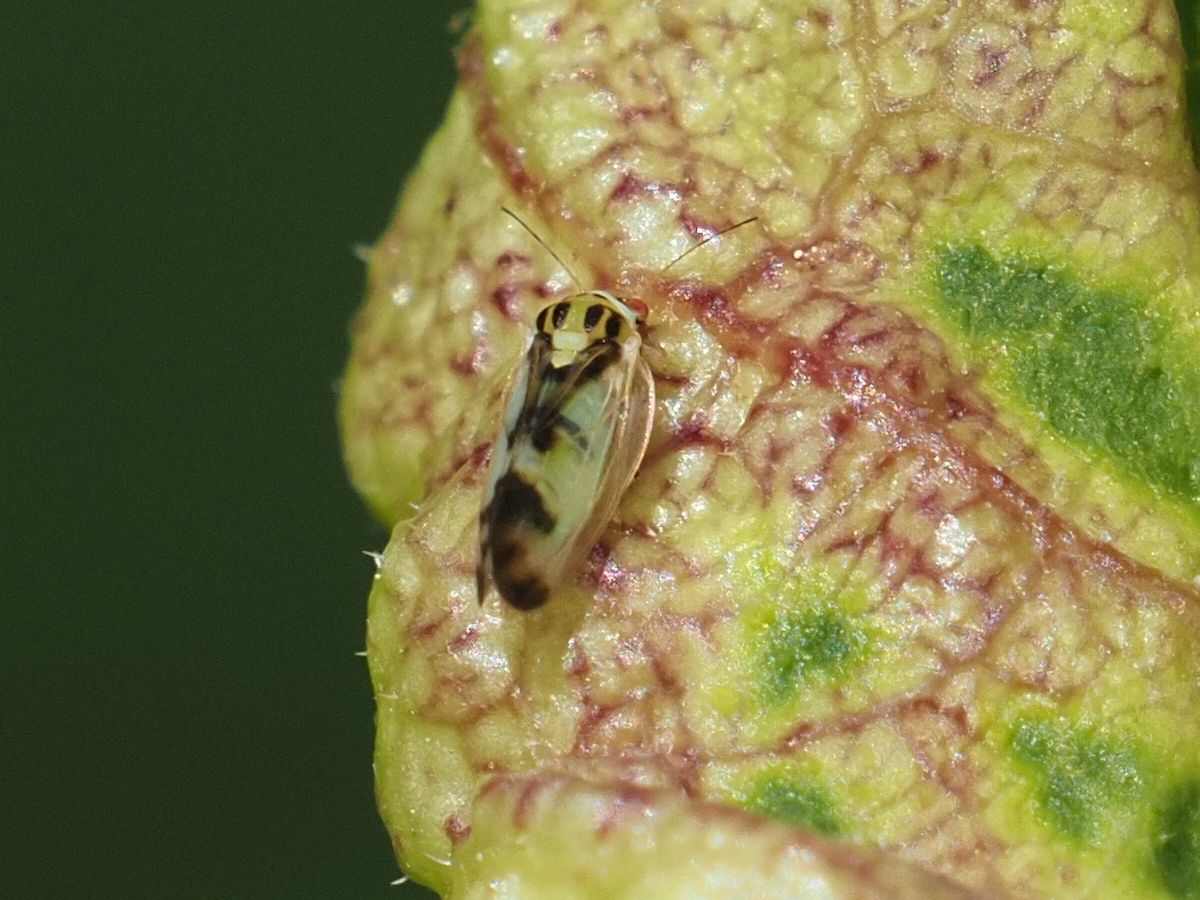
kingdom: Animalia
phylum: Arthropoda
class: Insecta
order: Hemiptera
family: Liviidae
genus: Psyllopsis
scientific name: Psyllopsis fraxini
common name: Jumping plant louse
